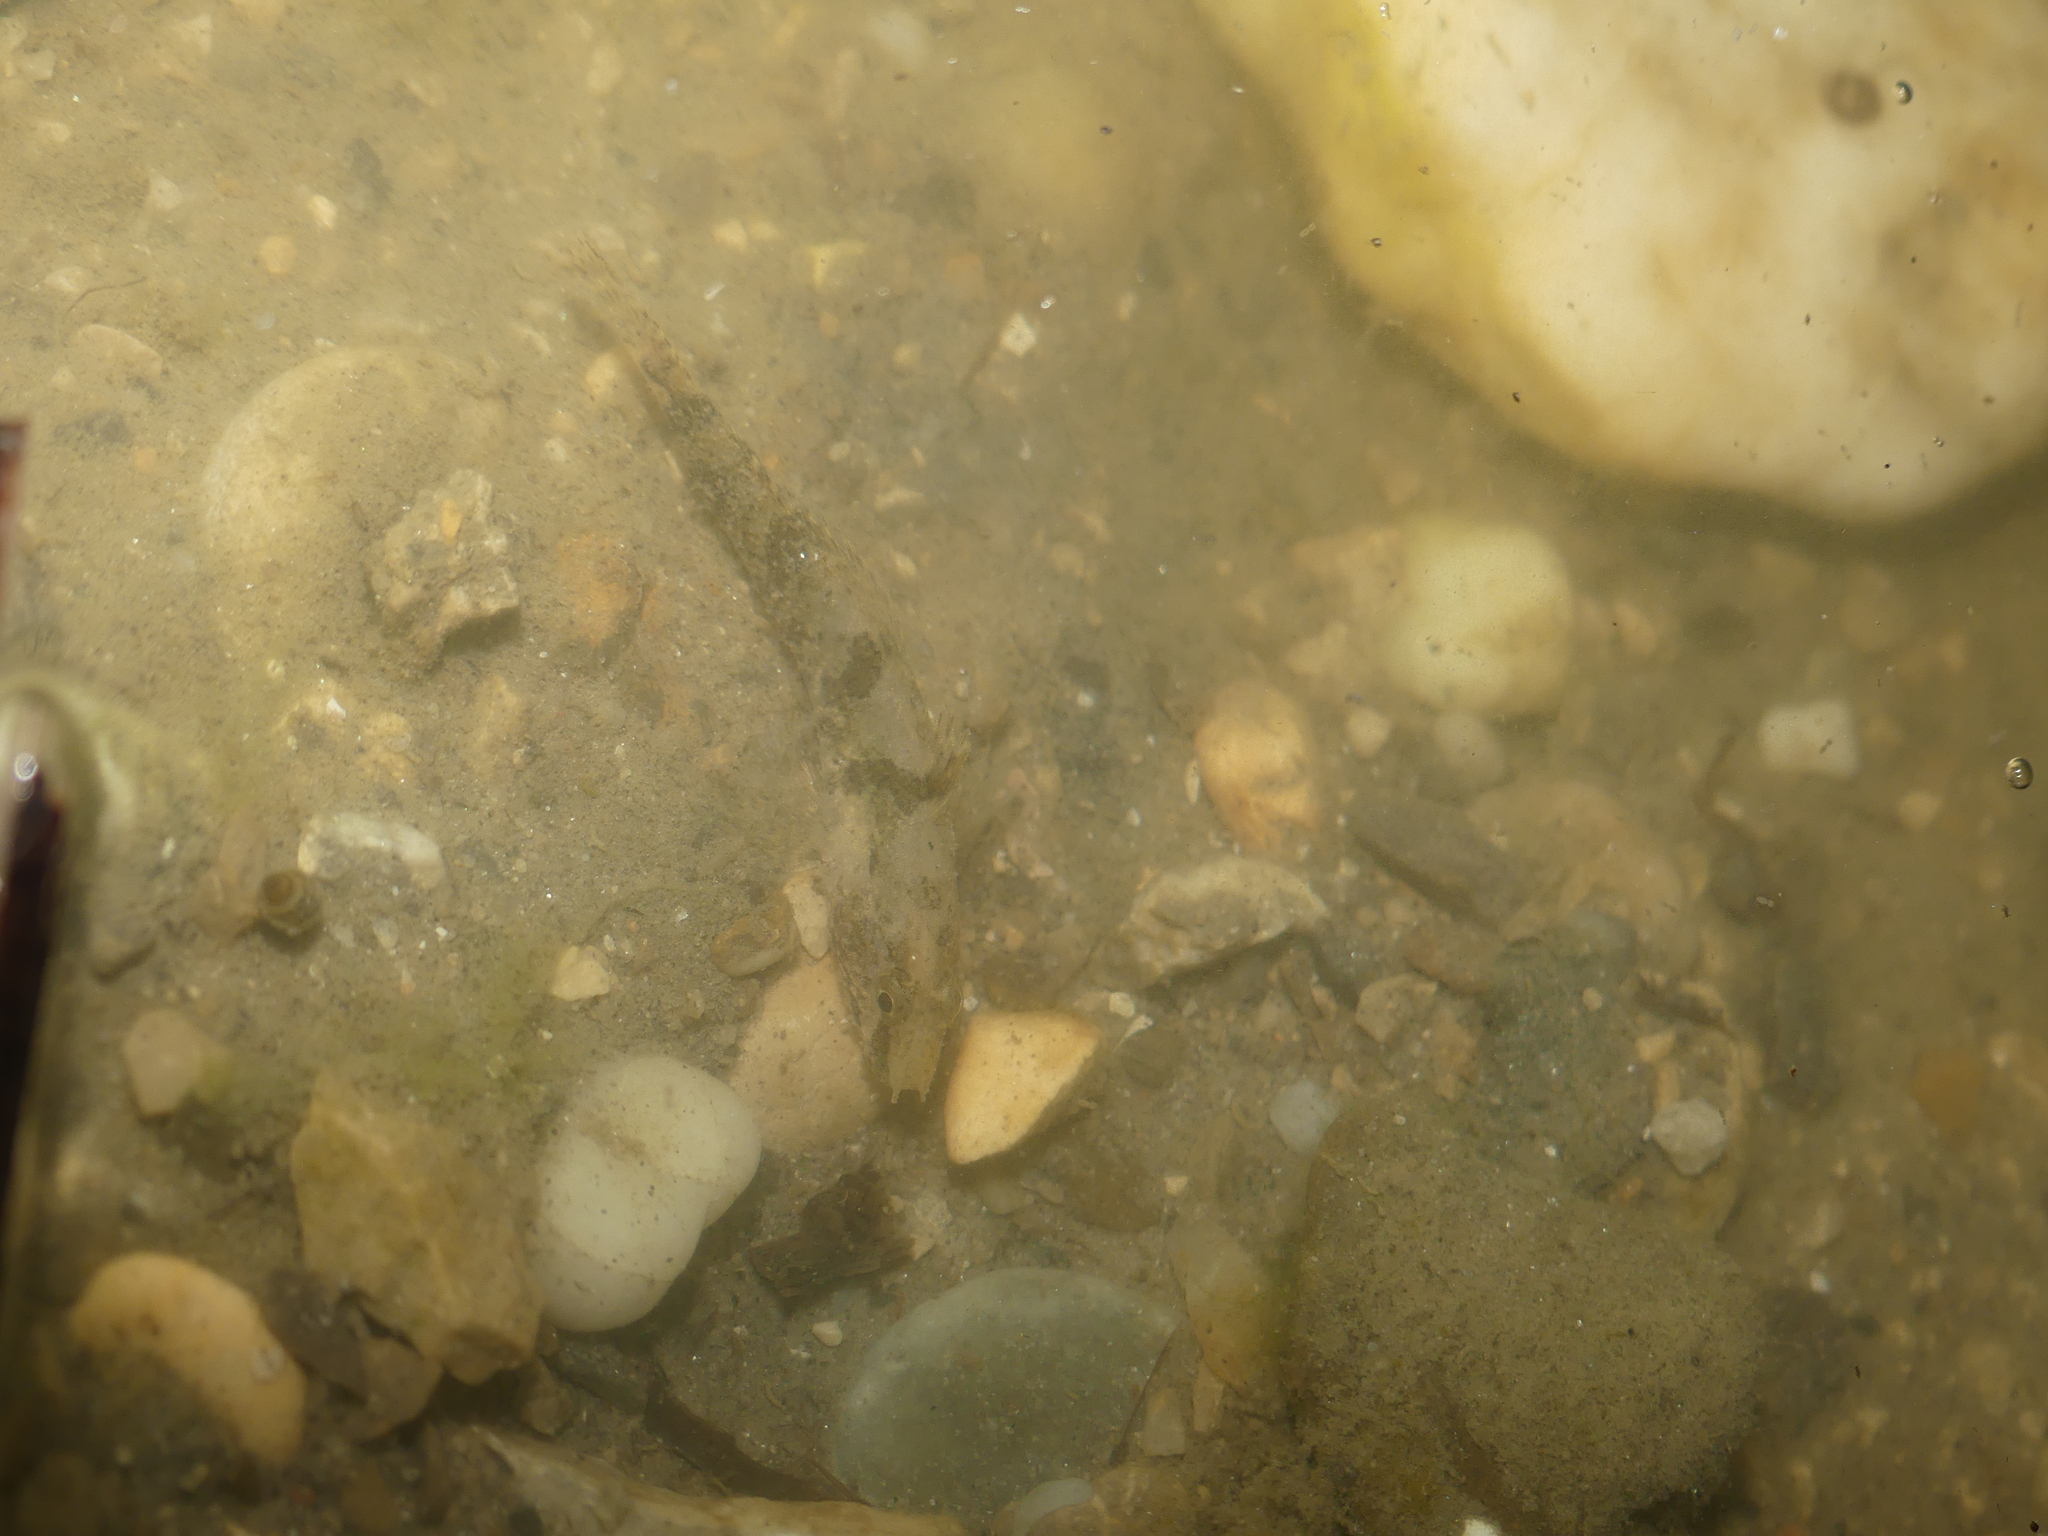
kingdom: Animalia
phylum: Chordata
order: Perciformes
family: Gobiidae
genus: Proterorhinus
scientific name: Proterorhinus semilunaris
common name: Western tubenose goby
